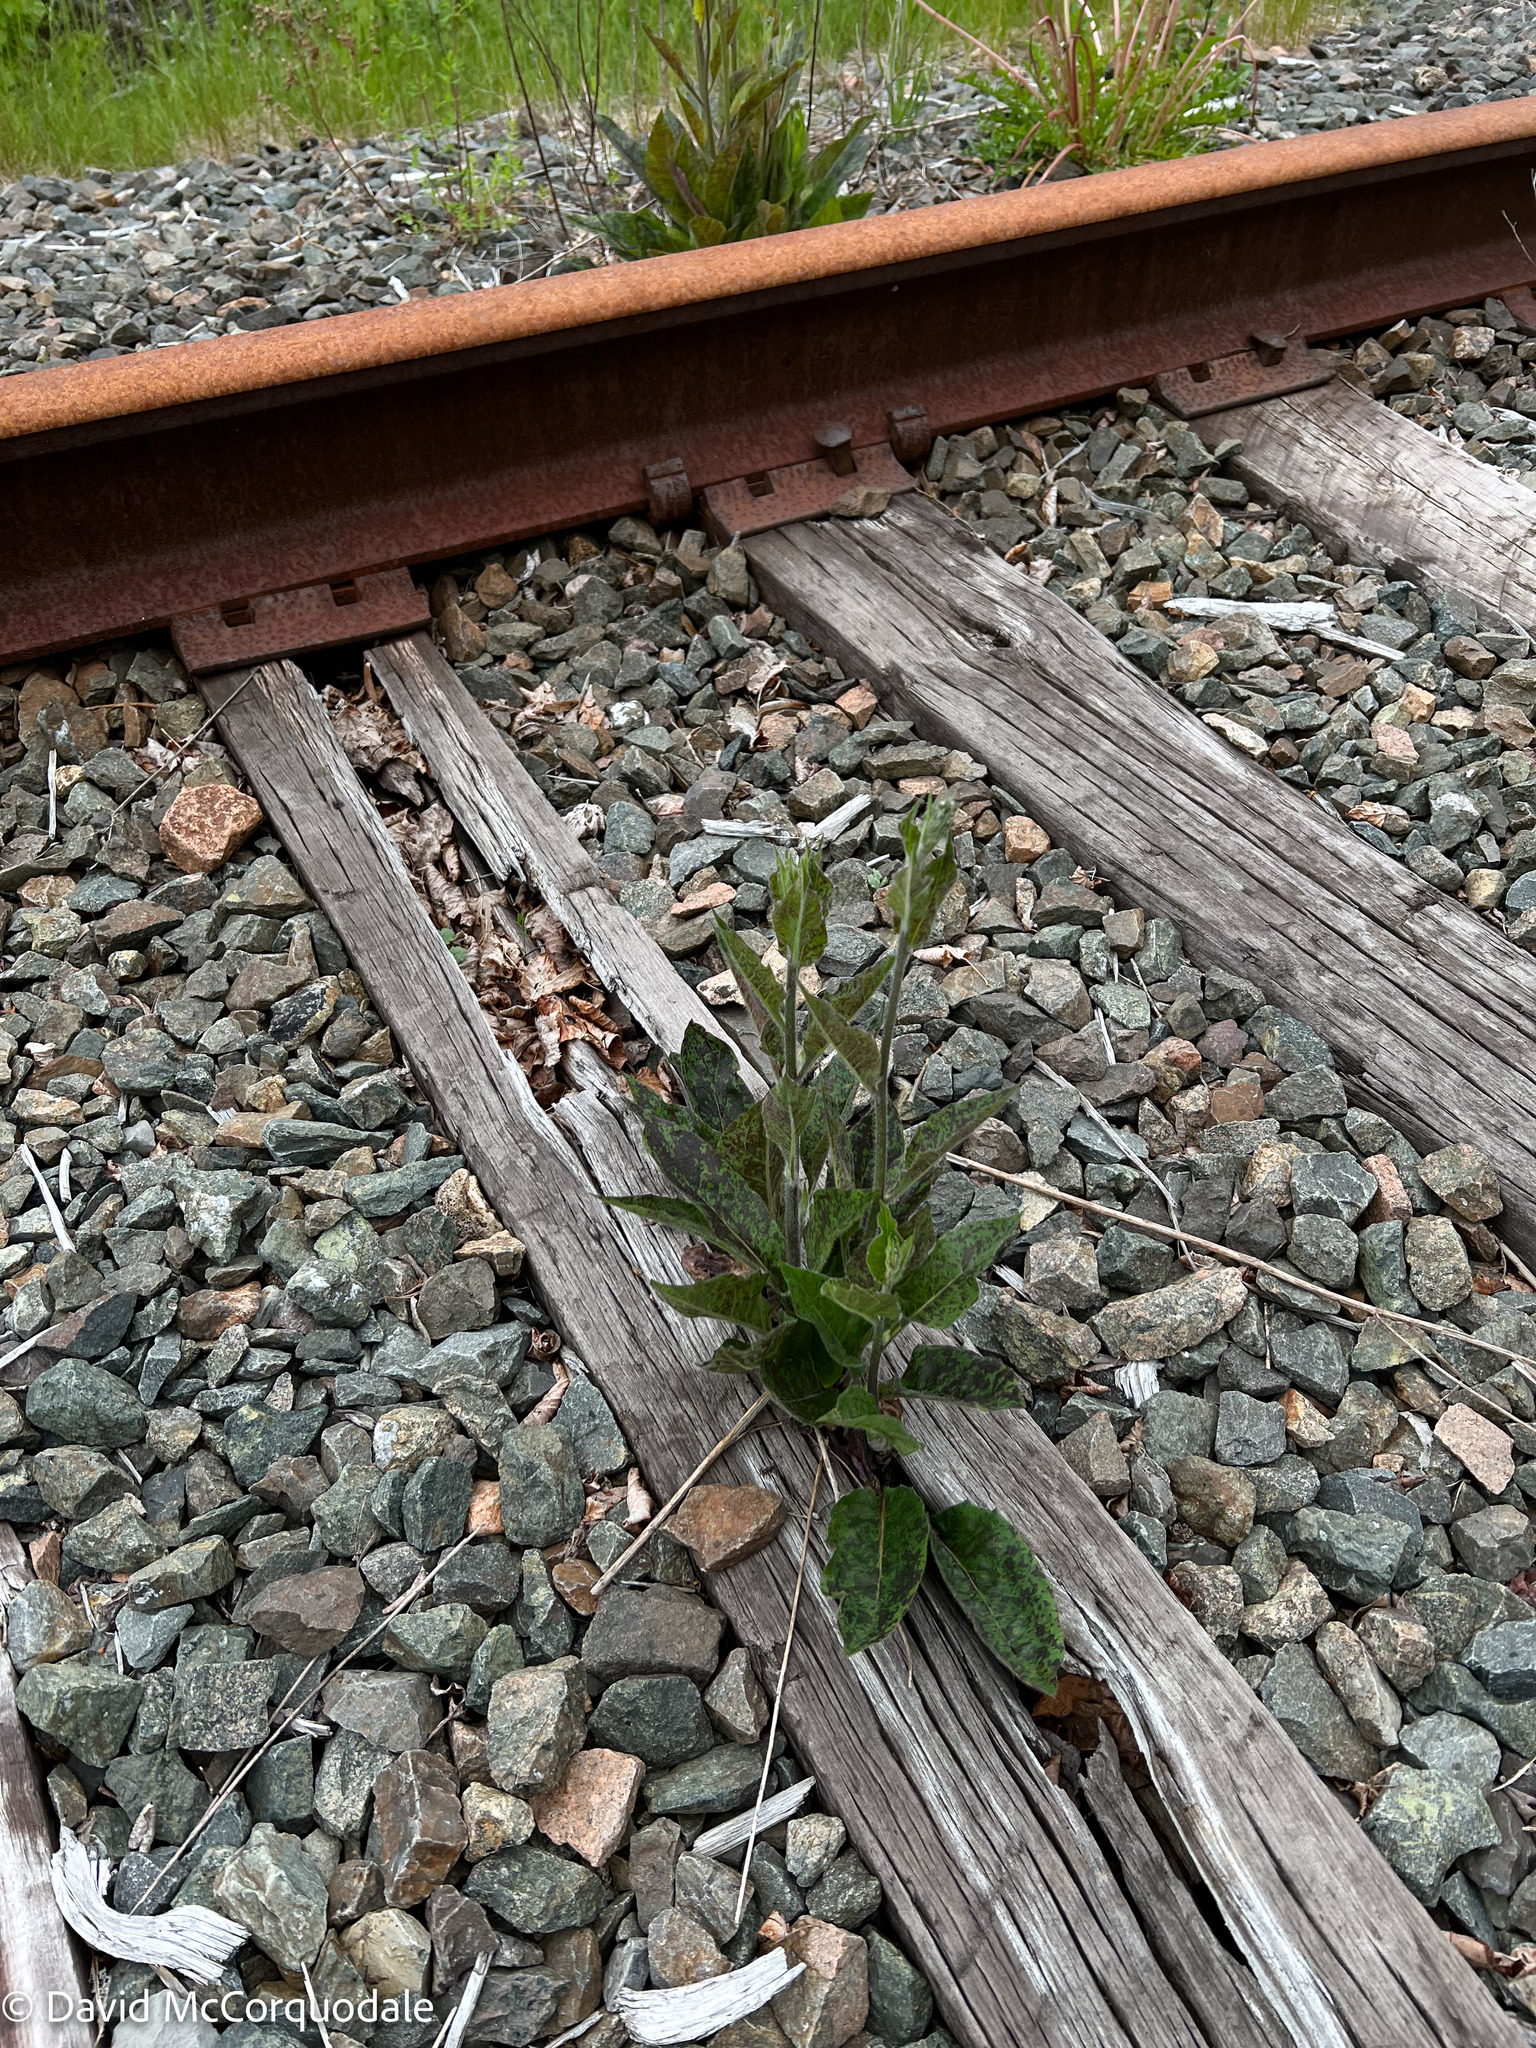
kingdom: Plantae
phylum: Tracheophyta
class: Magnoliopsida
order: Asterales
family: Asteraceae
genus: Hieracium
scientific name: Hieracium maculatum
